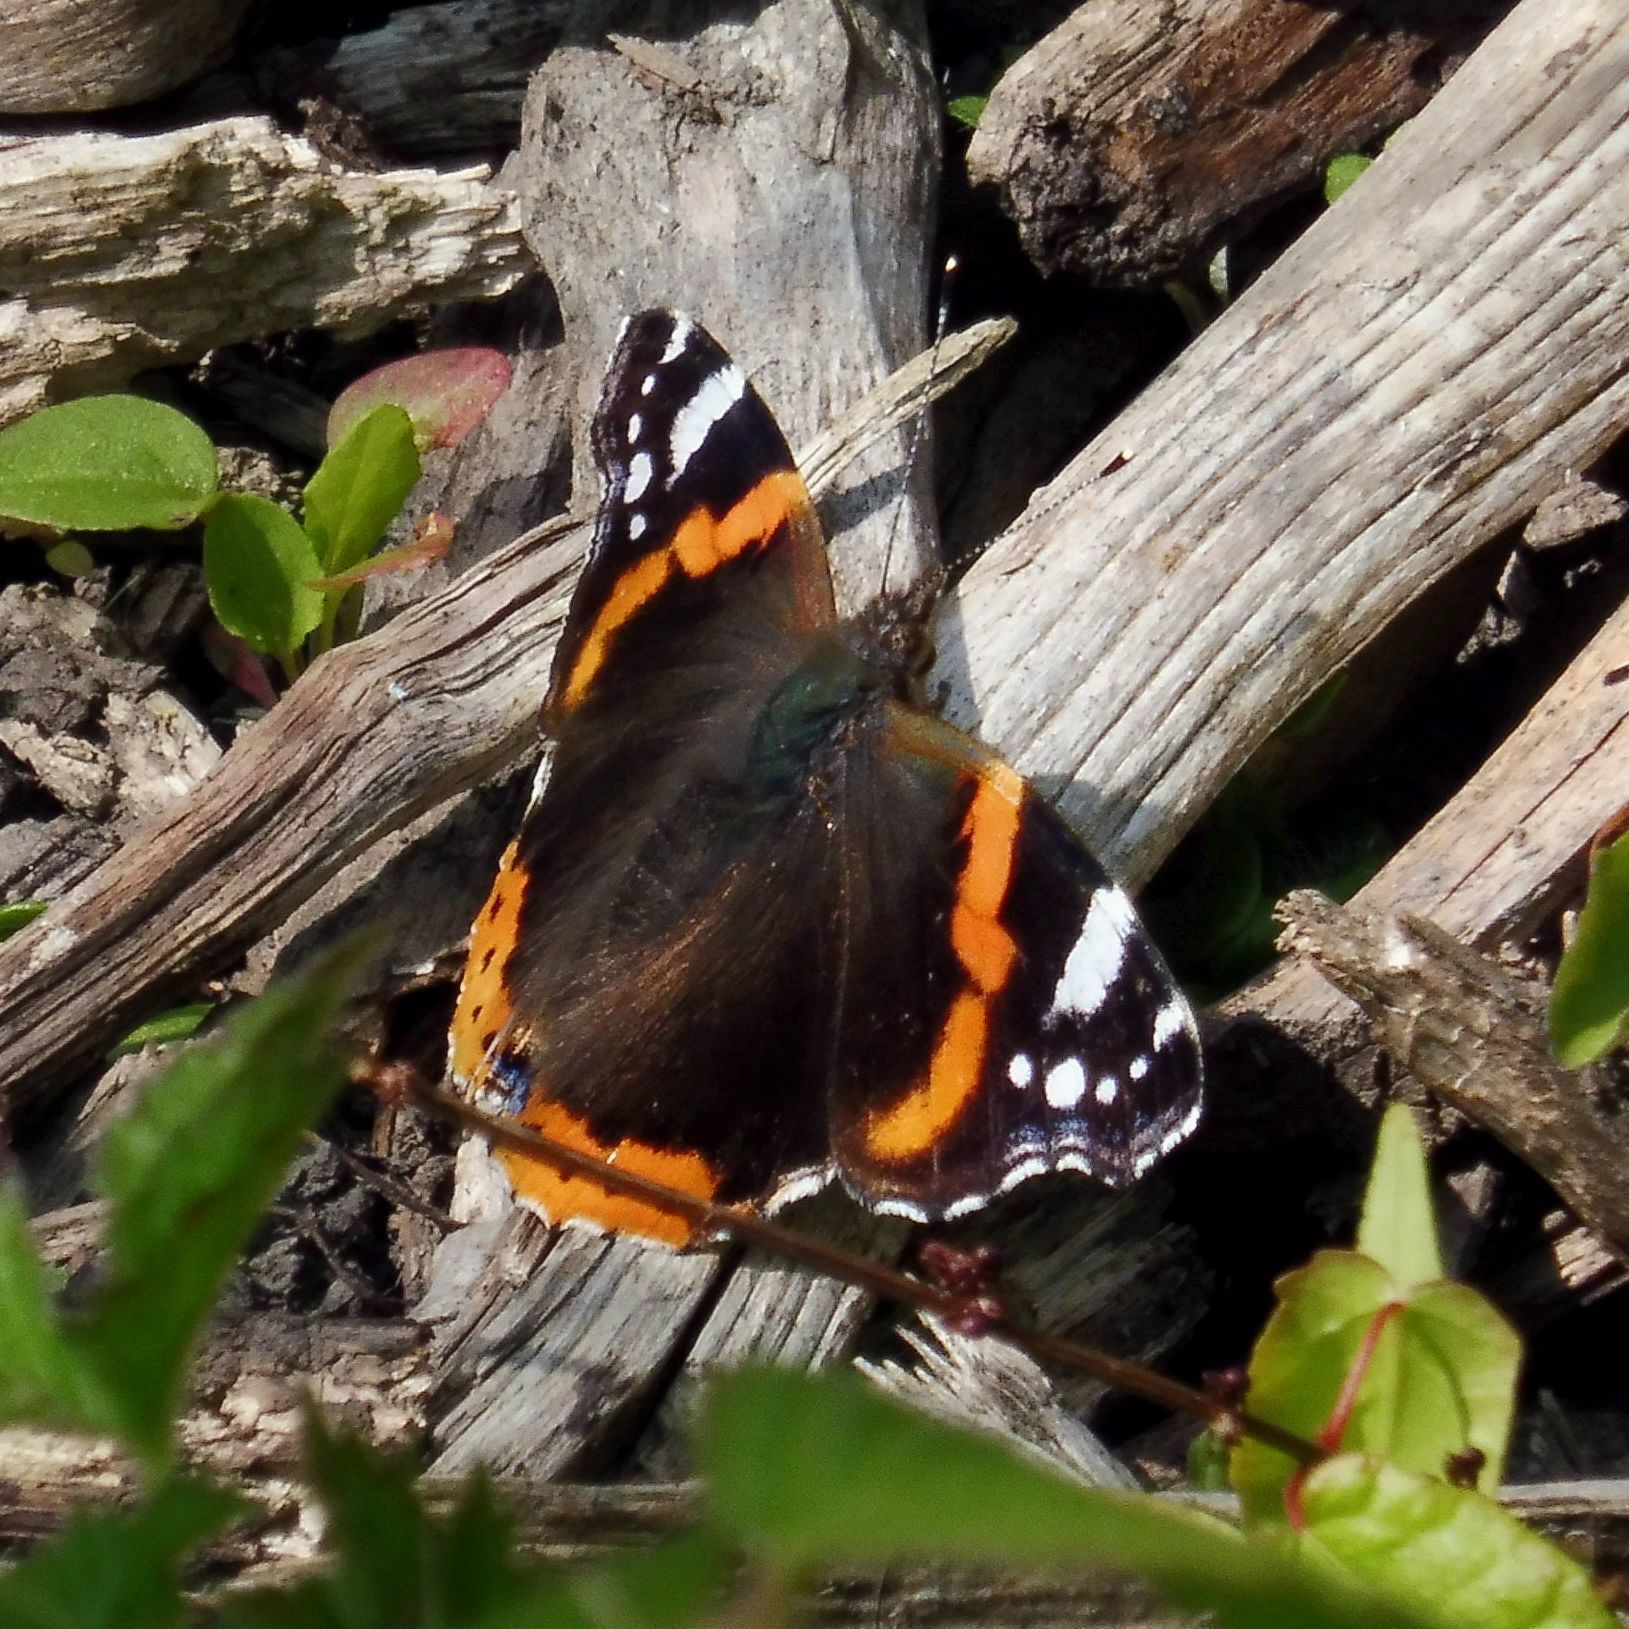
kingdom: Animalia
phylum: Arthropoda
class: Insecta
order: Lepidoptera
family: Nymphalidae
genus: Vanessa
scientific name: Vanessa atalanta
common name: Red admiral
